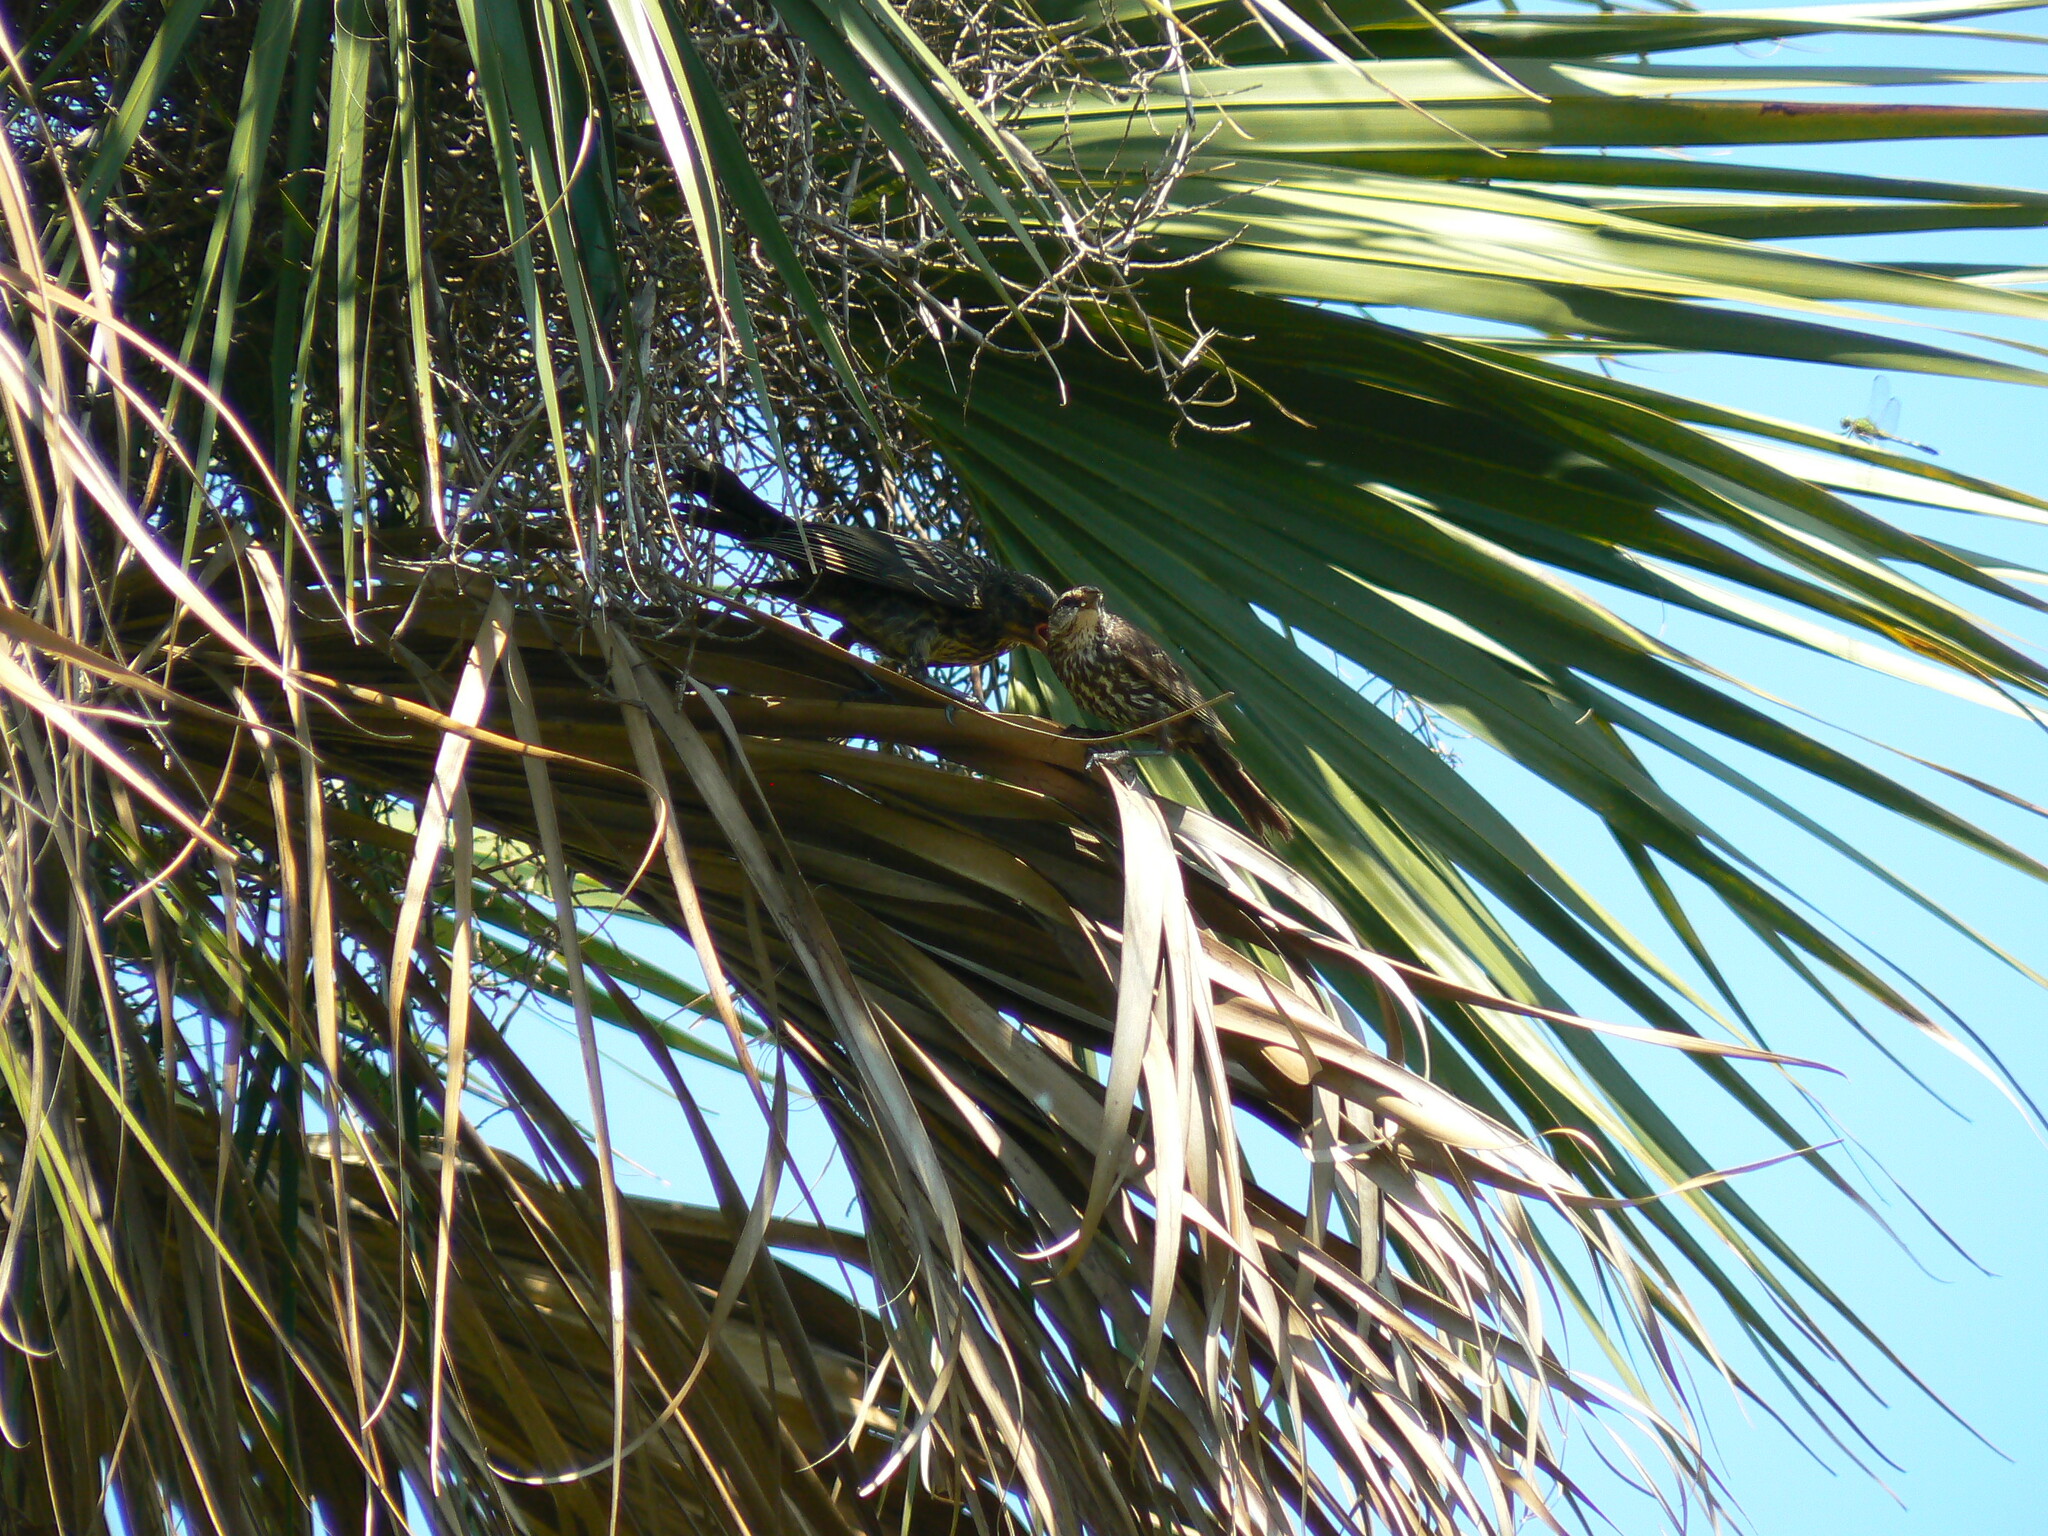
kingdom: Animalia
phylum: Chordata
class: Aves
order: Passeriformes
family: Icteridae
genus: Agelaius
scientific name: Agelaius phoeniceus
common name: Red-winged blackbird
